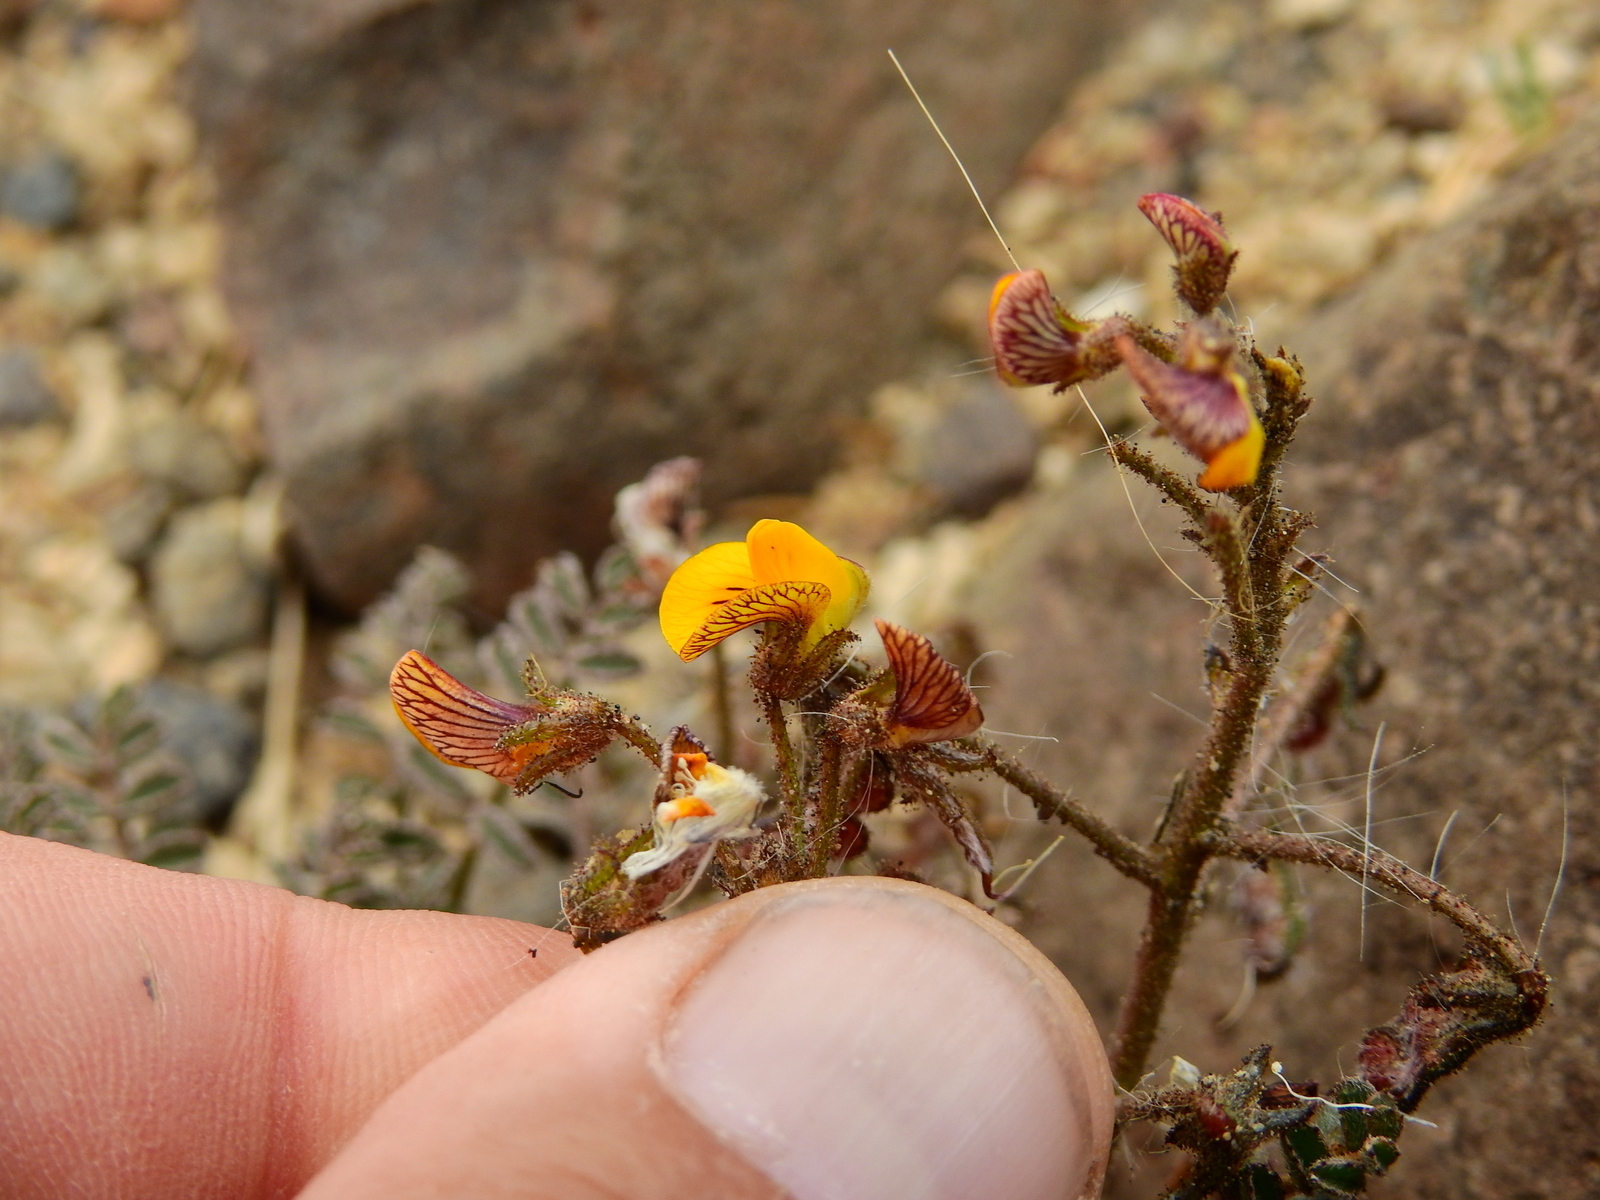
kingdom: Plantae
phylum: Tracheophyta
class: Magnoliopsida
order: Fabales
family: Fabaceae
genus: Adesmia
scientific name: Adesmia corymbosa
